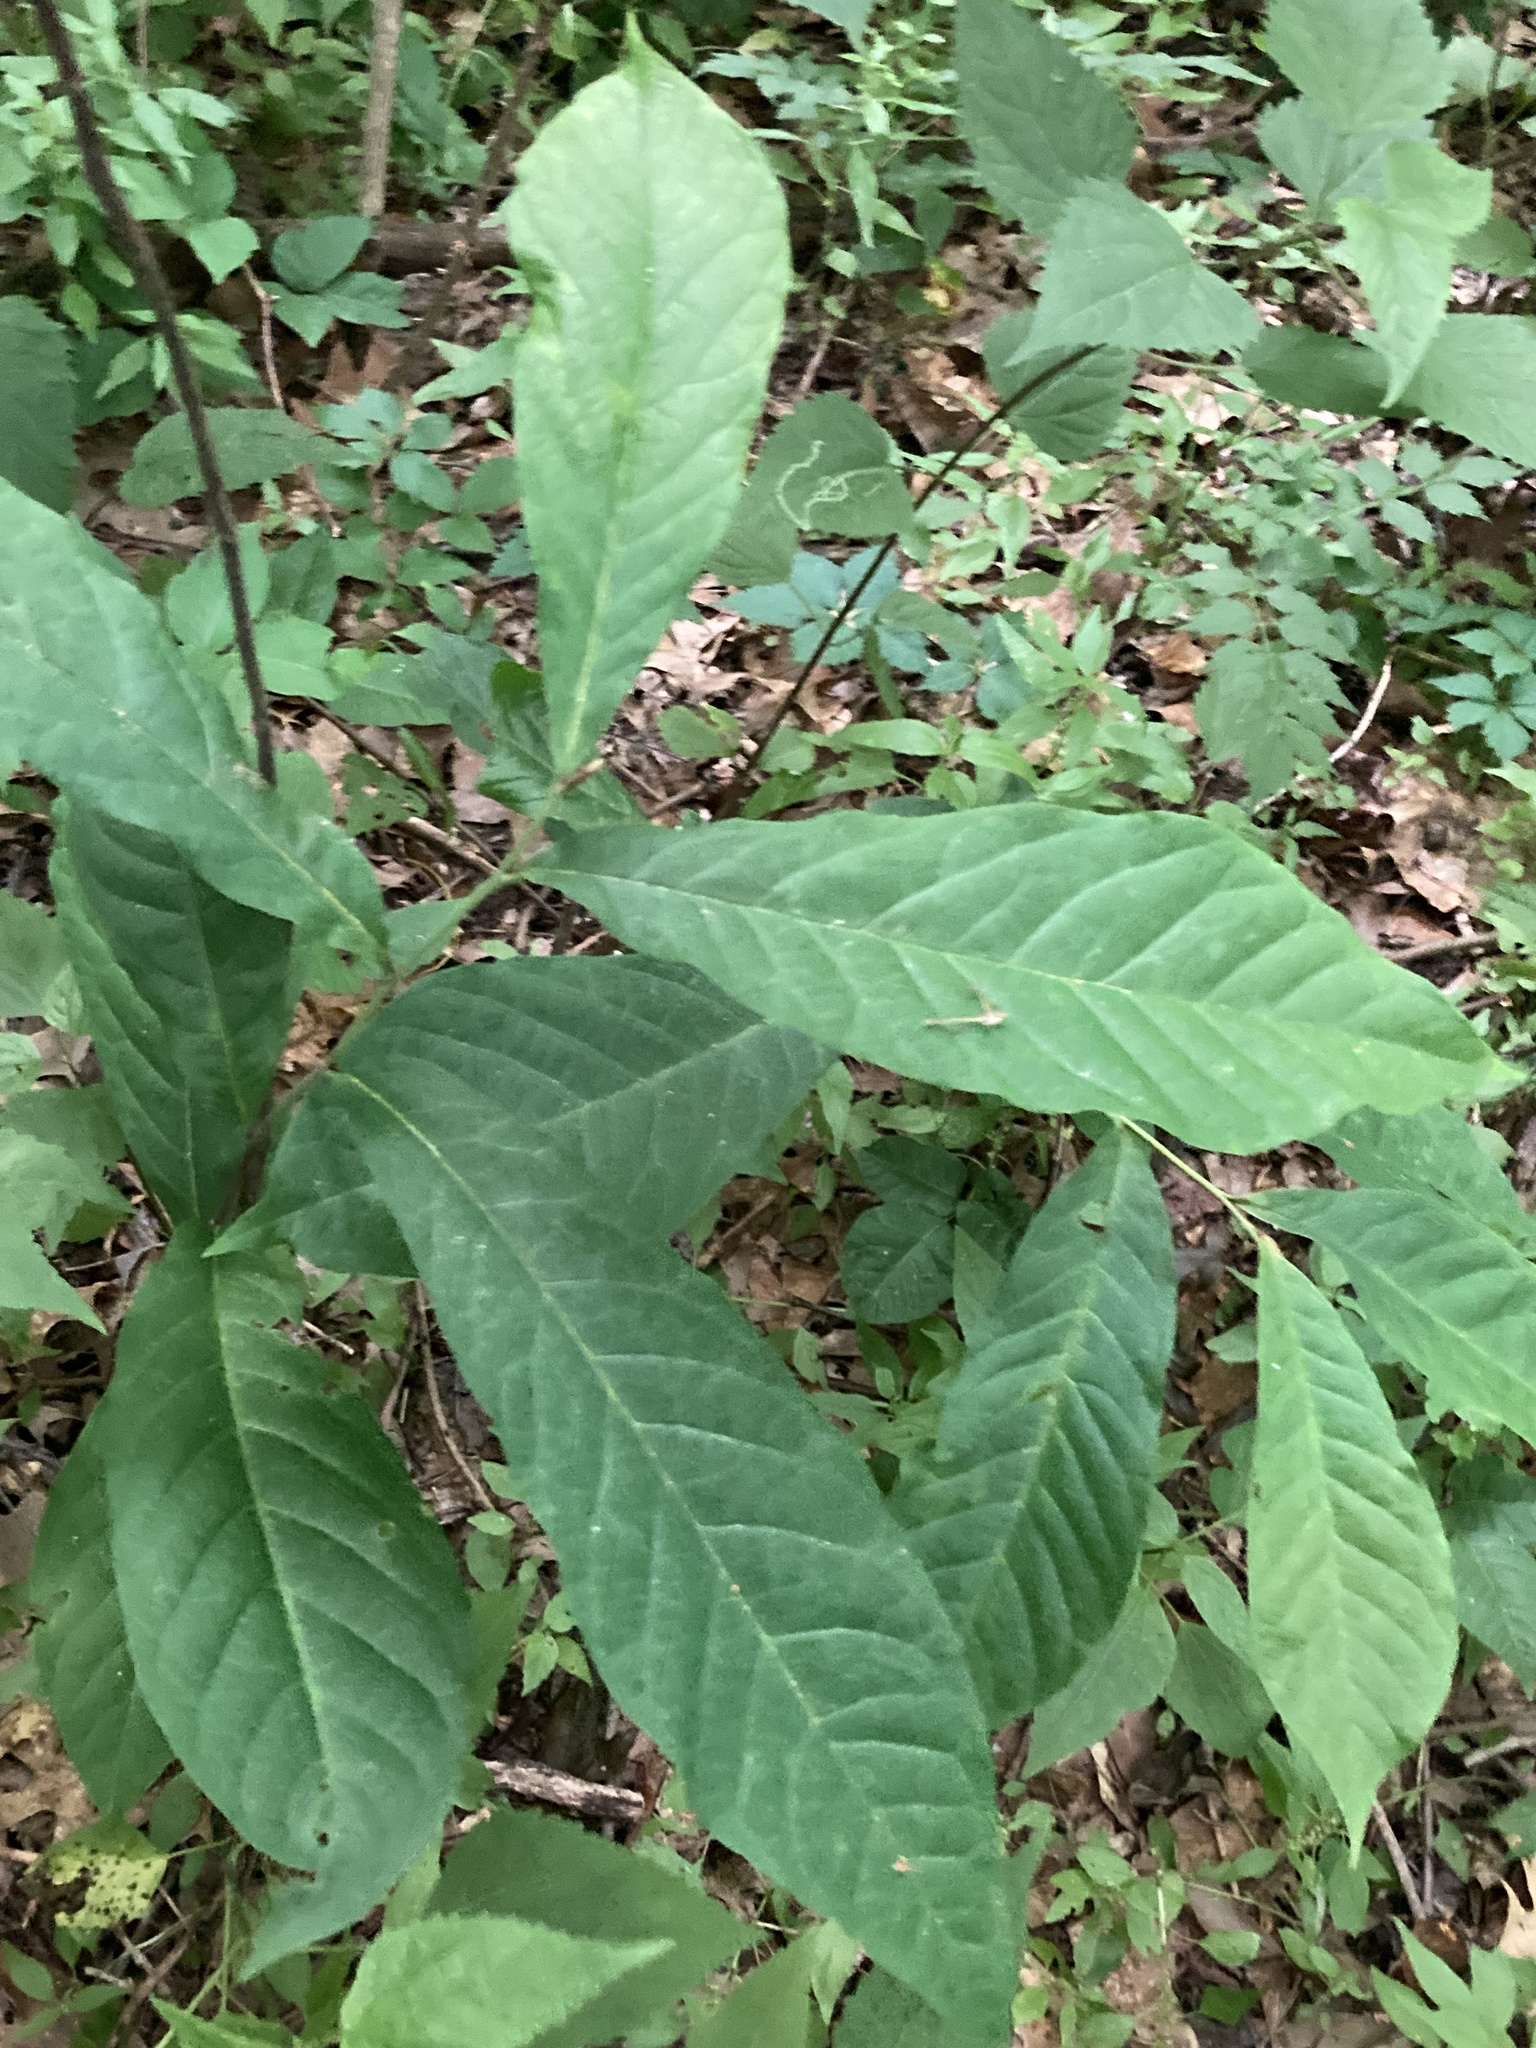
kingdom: Plantae
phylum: Tracheophyta
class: Magnoliopsida
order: Magnoliales
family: Annonaceae
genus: Asimina
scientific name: Asimina triloba
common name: Dog-banana
